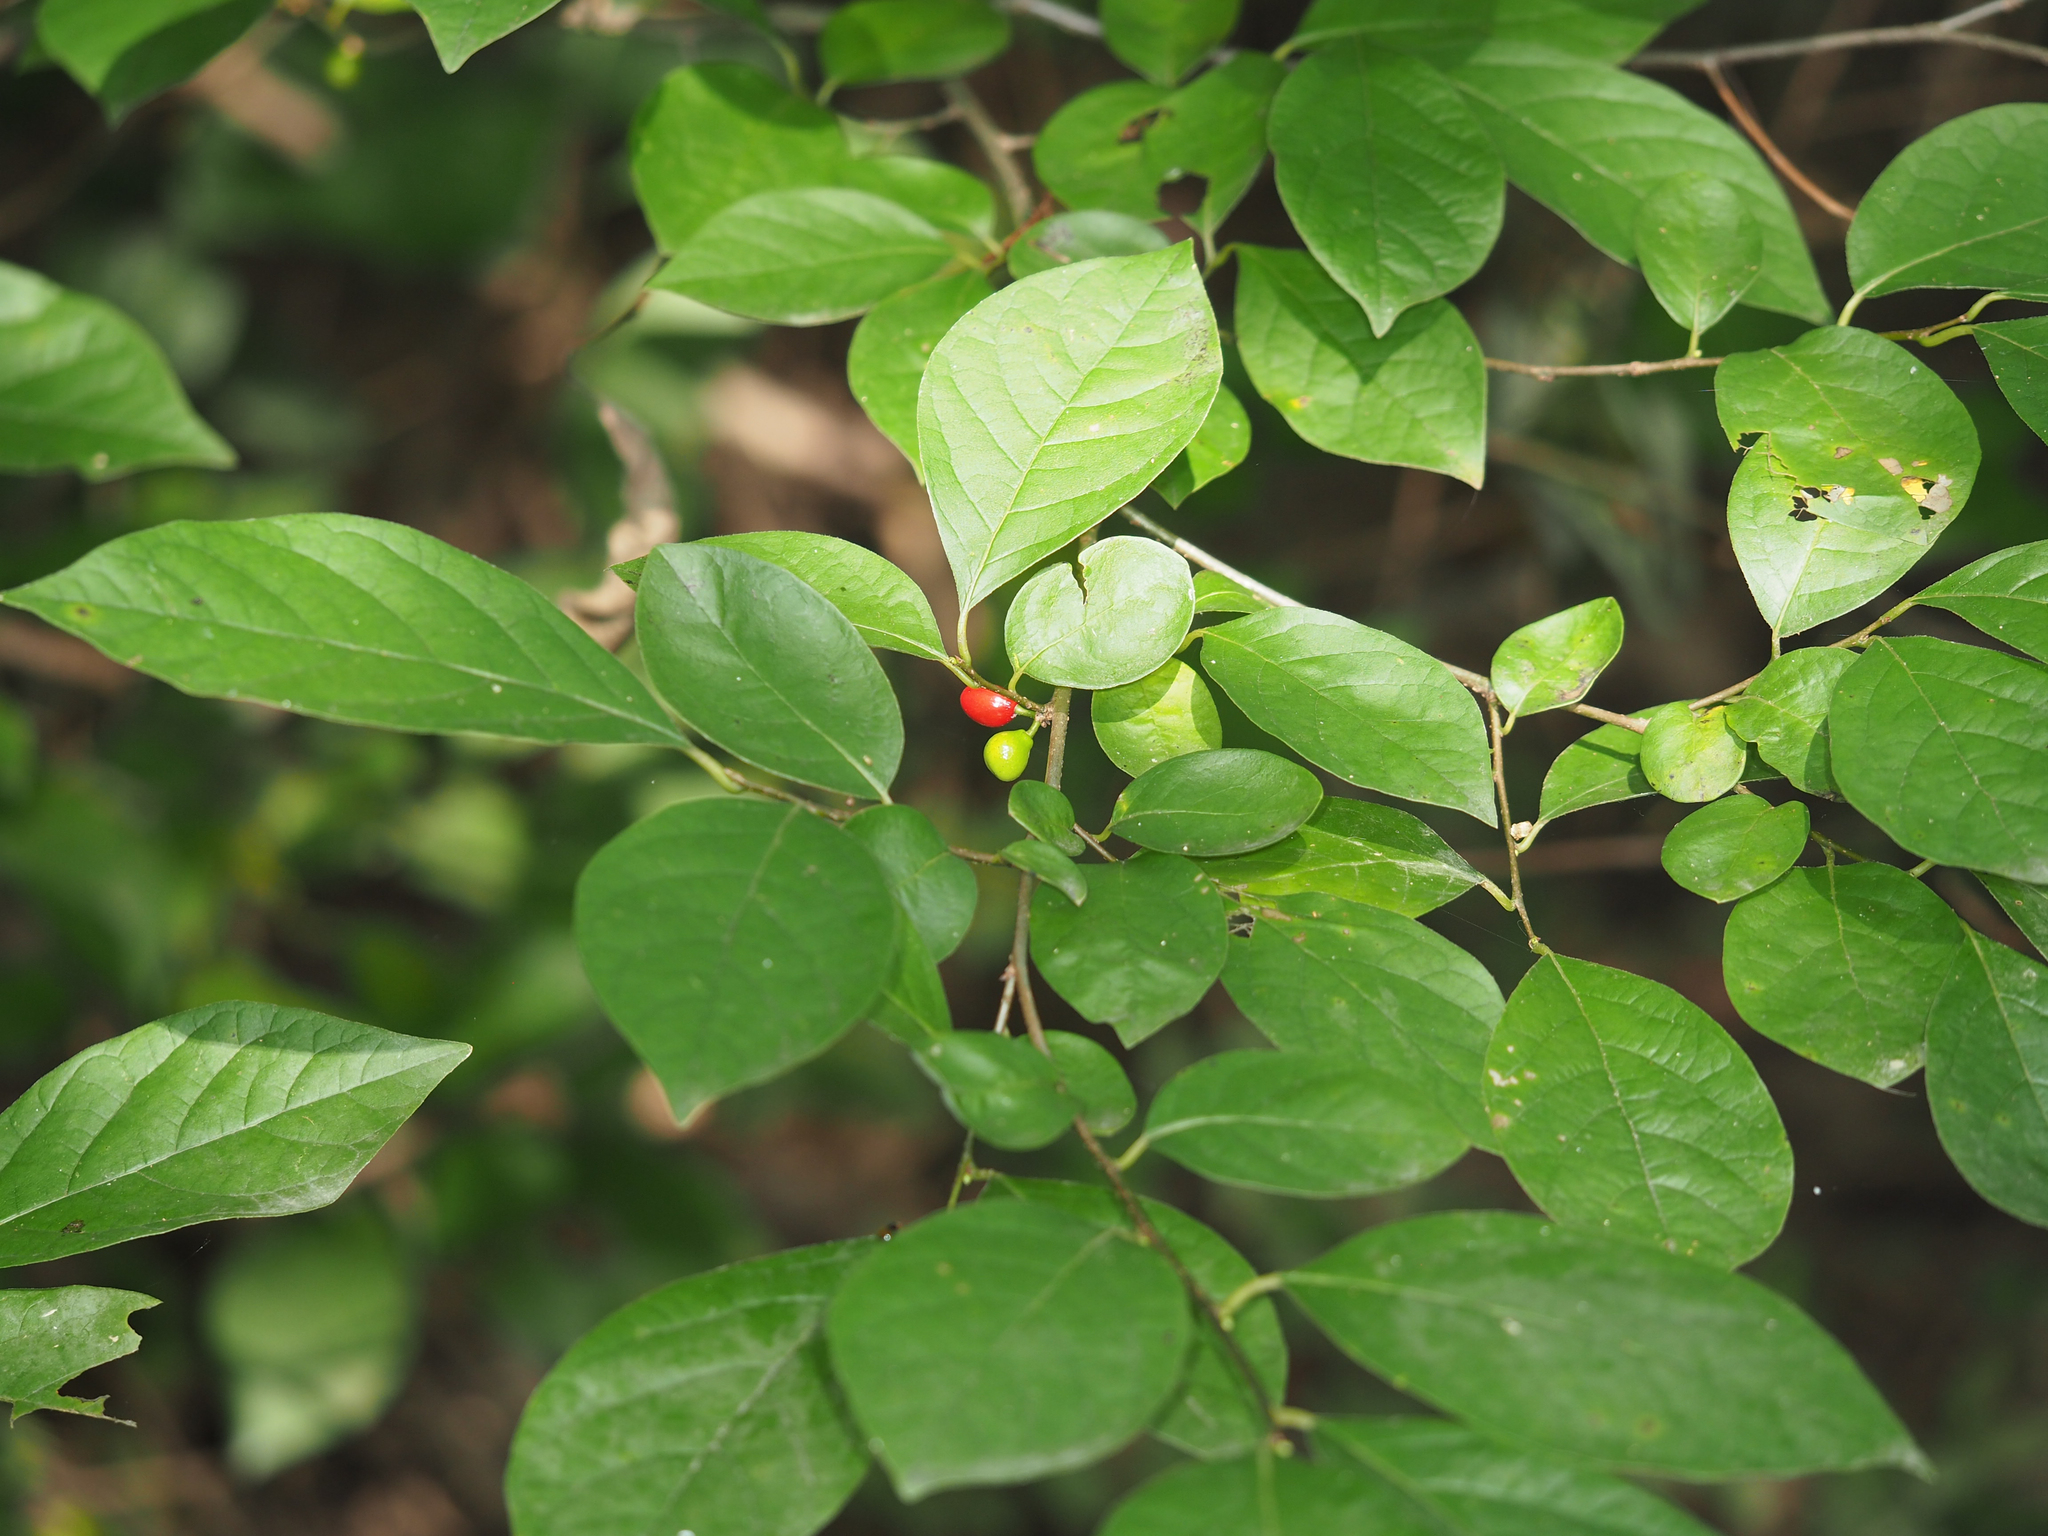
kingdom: Plantae
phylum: Tracheophyta
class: Magnoliopsida
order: Laurales
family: Lauraceae
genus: Lindera
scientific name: Lindera benzoin
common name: Spicebush
